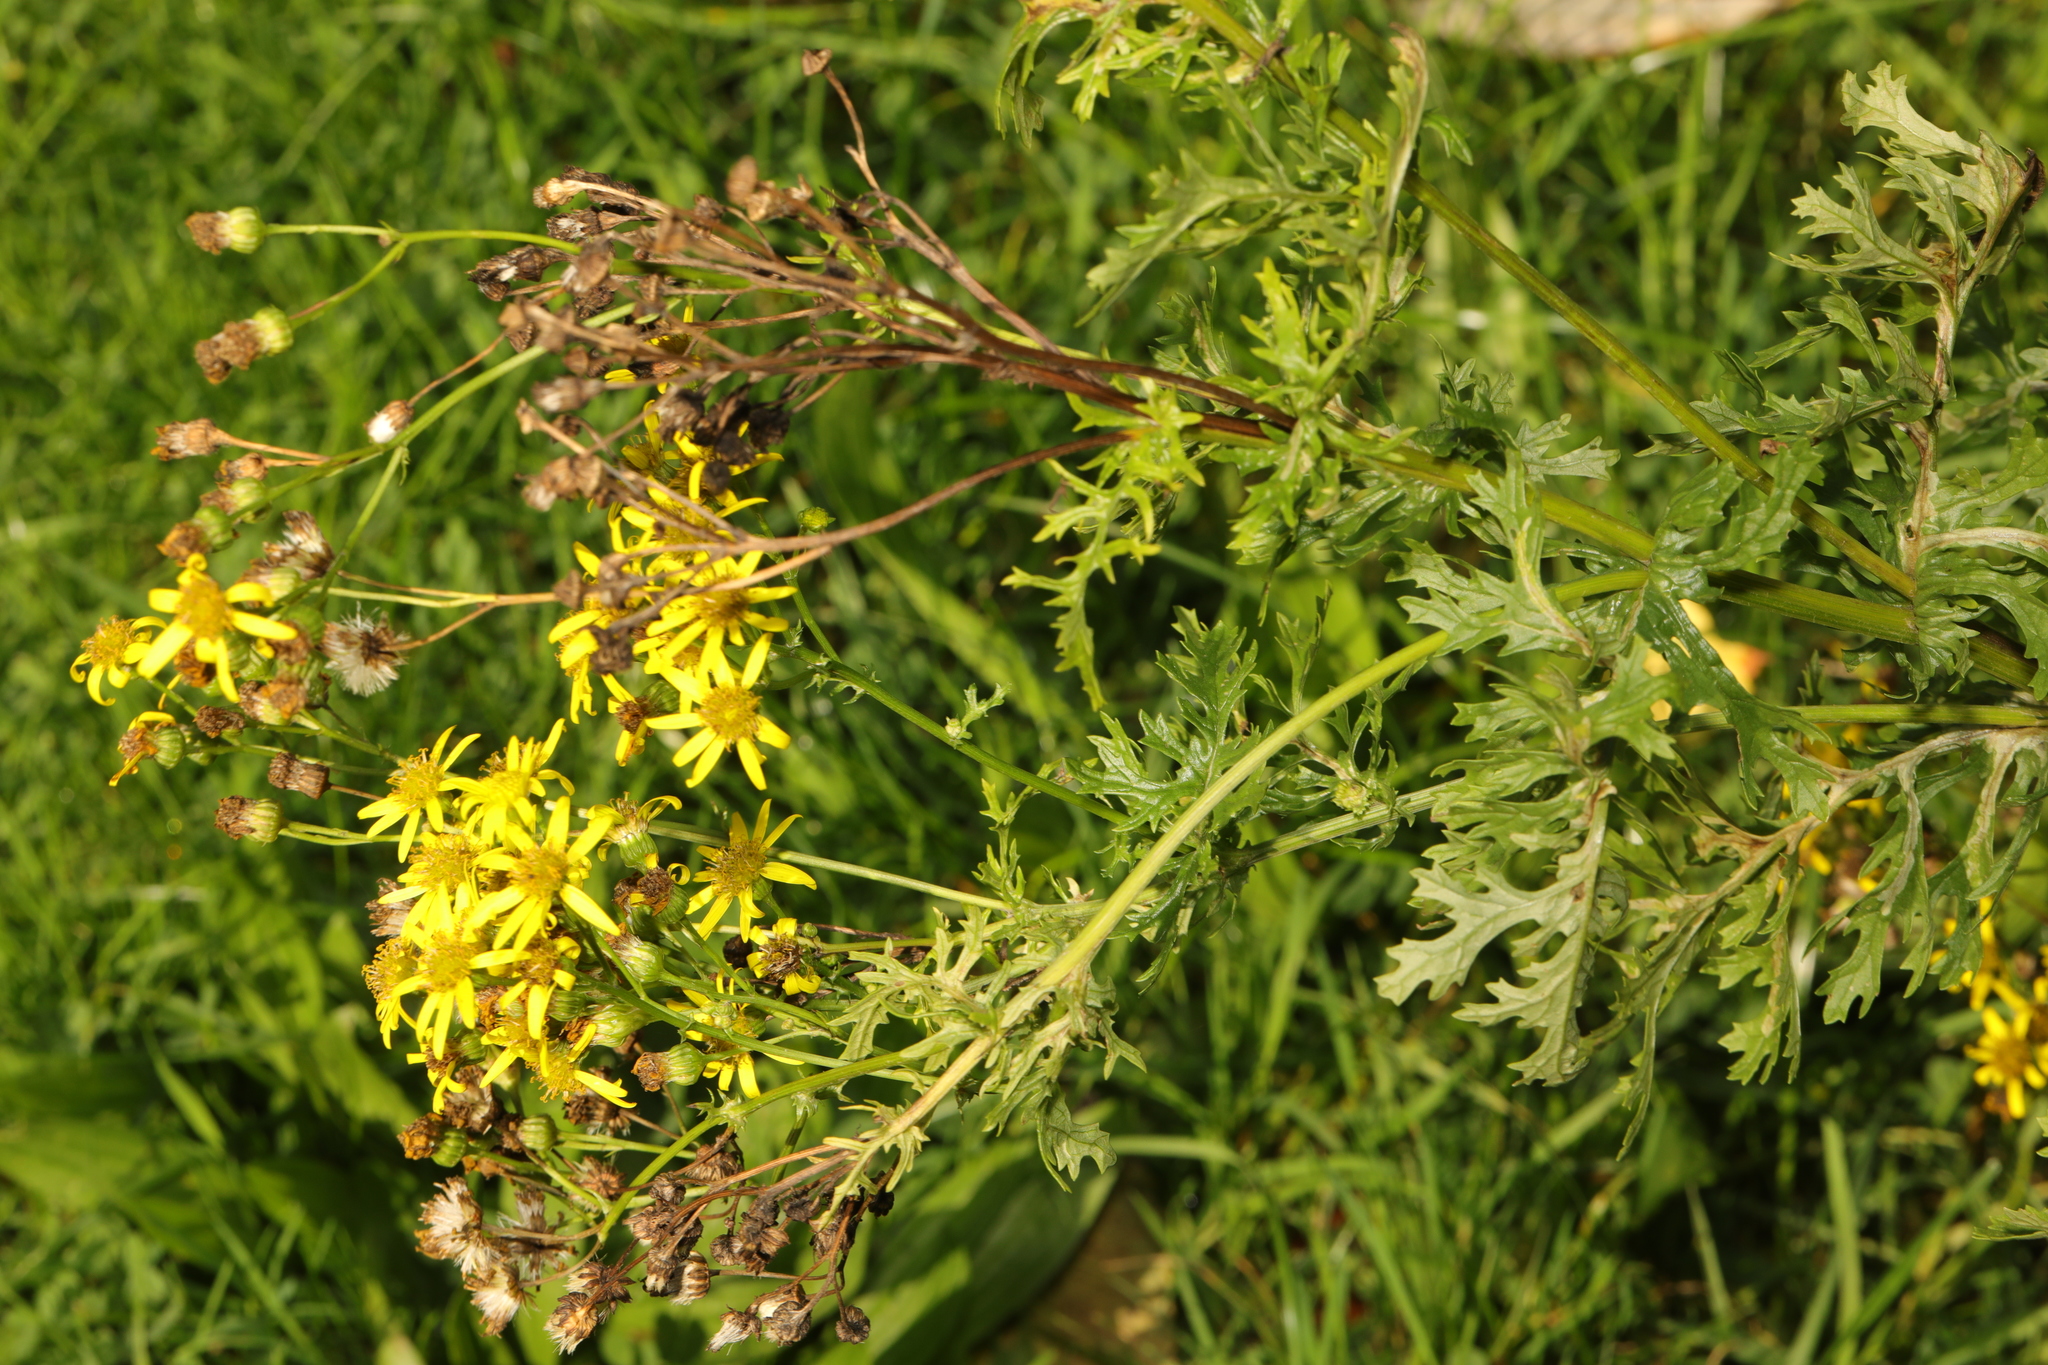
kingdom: Plantae
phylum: Tracheophyta
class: Magnoliopsida
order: Asterales
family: Asteraceae
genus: Jacobaea
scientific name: Jacobaea vulgaris
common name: Stinking willie
